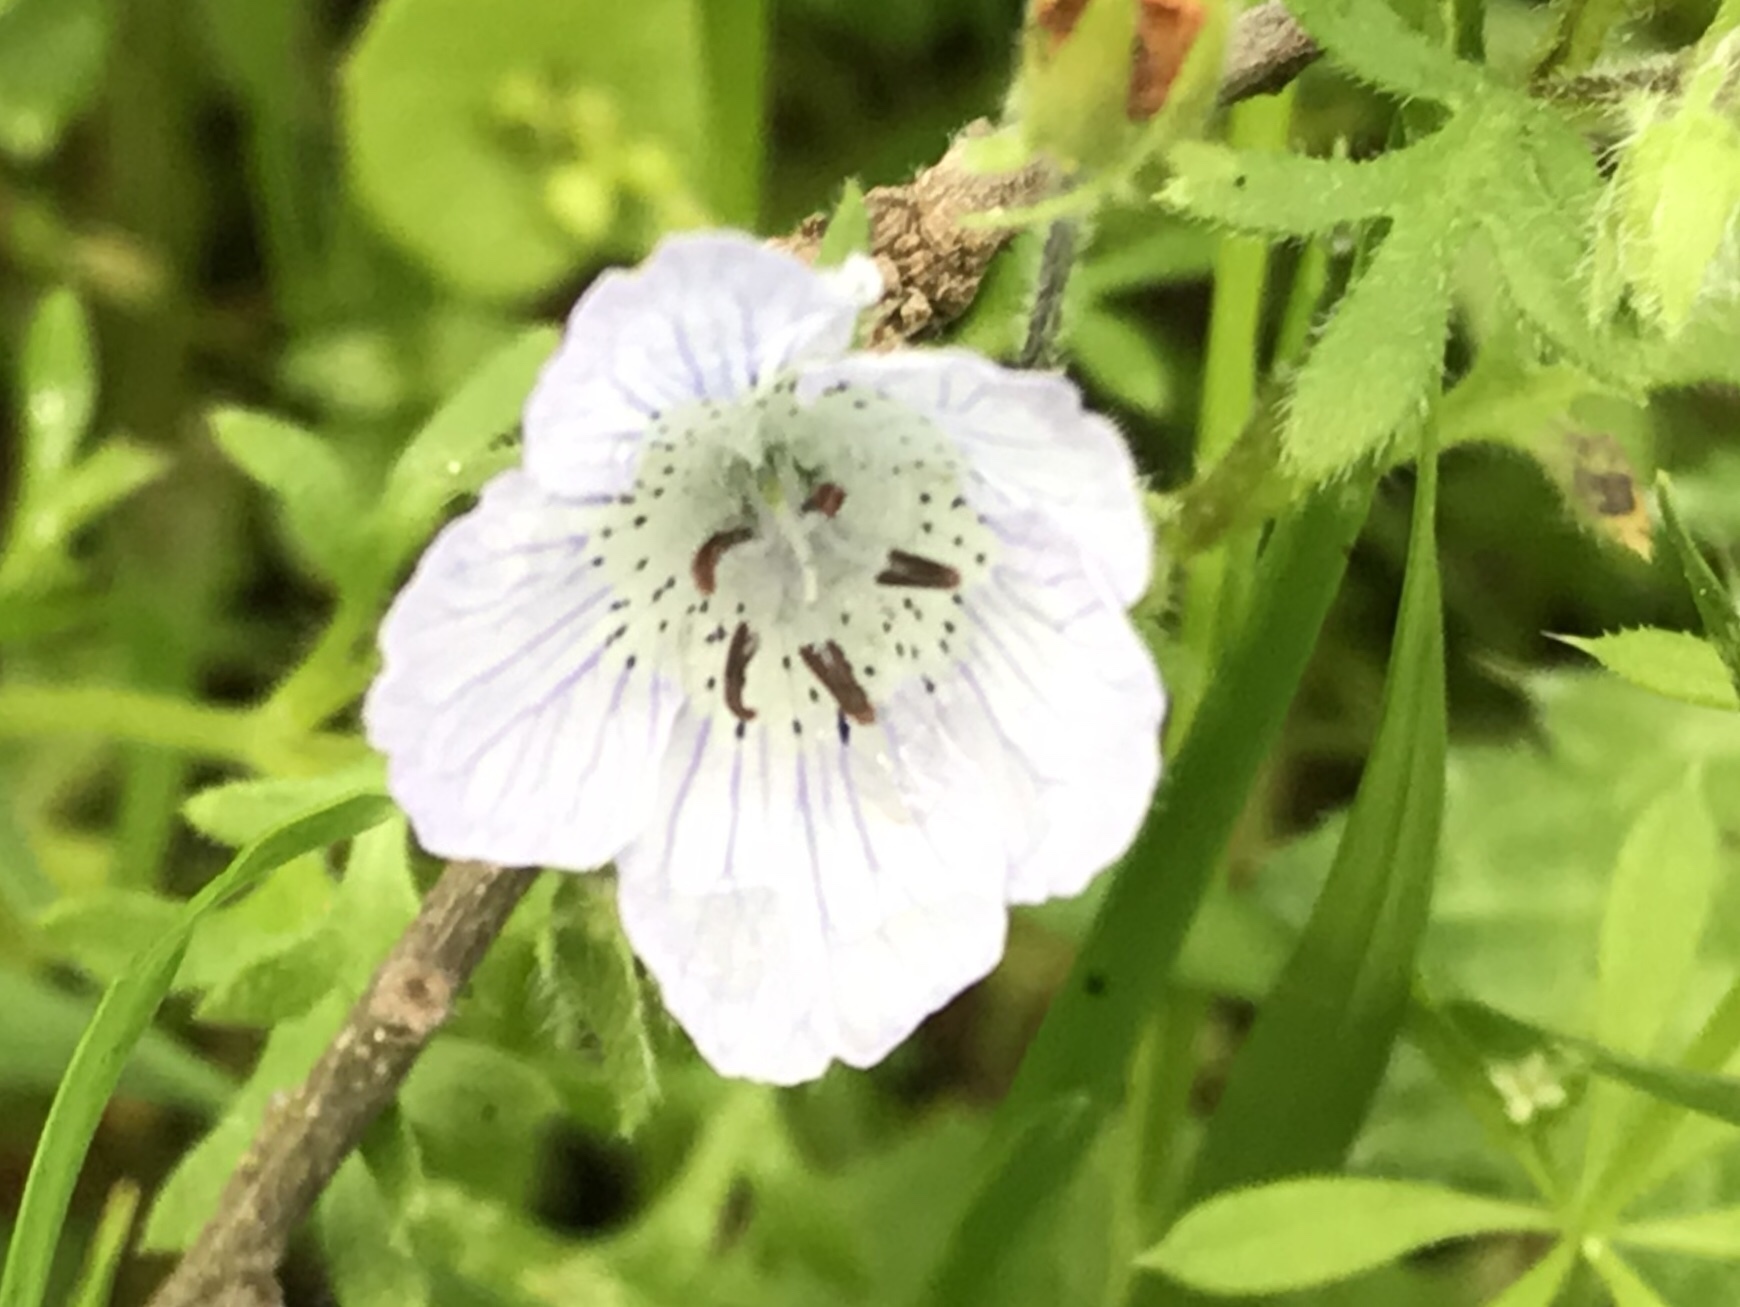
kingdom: Plantae
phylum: Tracheophyta
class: Magnoliopsida
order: Boraginales
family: Hydrophyllaceae
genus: Nemophila
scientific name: Nemophila menziesii
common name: Baby's-blue-eyes
